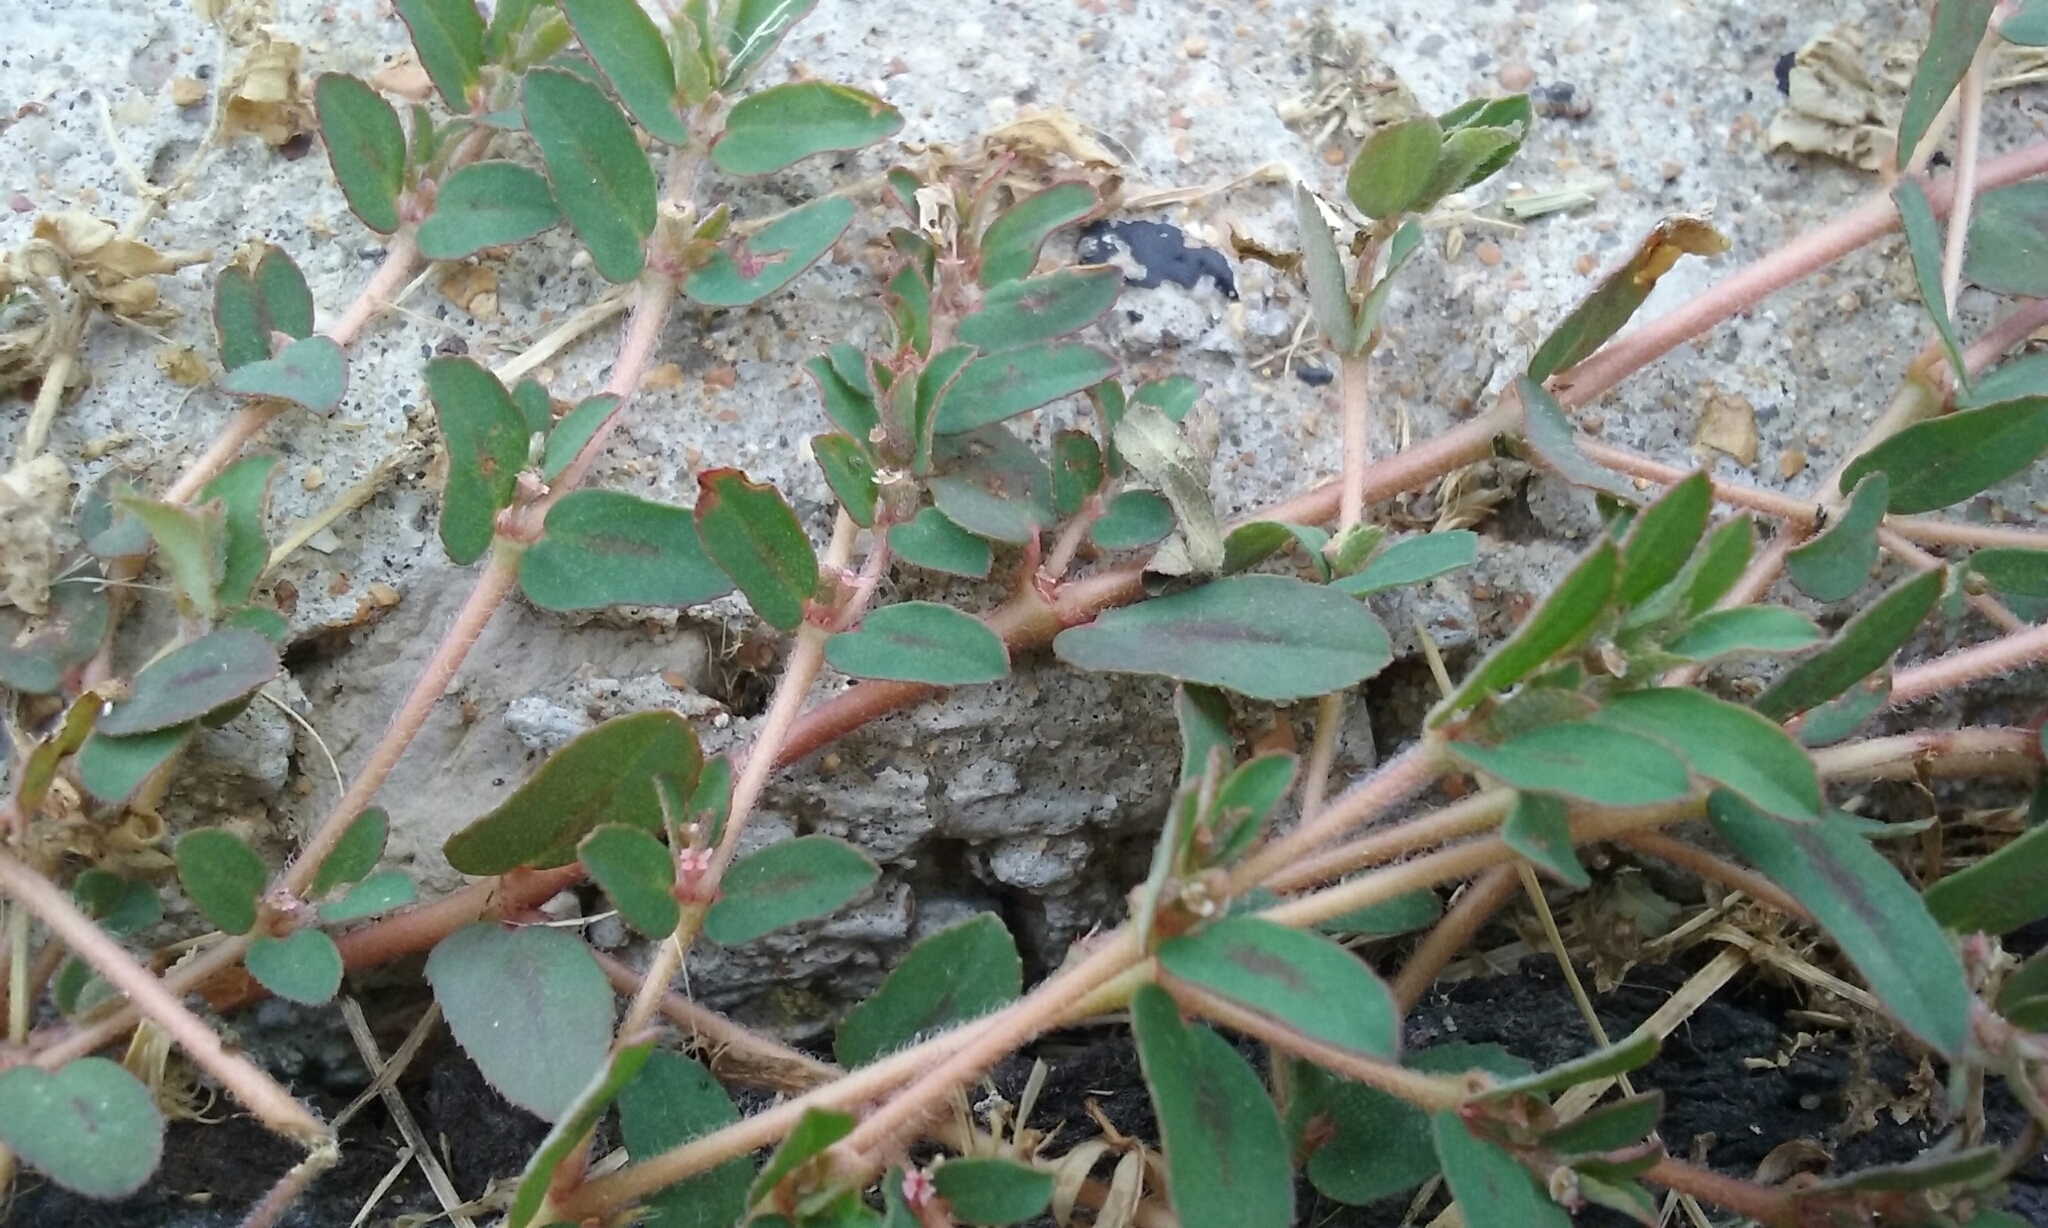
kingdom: Plantae
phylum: Tracheophyta
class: Magnoliopsida
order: Malpighiales
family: Euphorbiaceae
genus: Euphorbia
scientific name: Euphorbia maculata
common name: Spotted spurge
